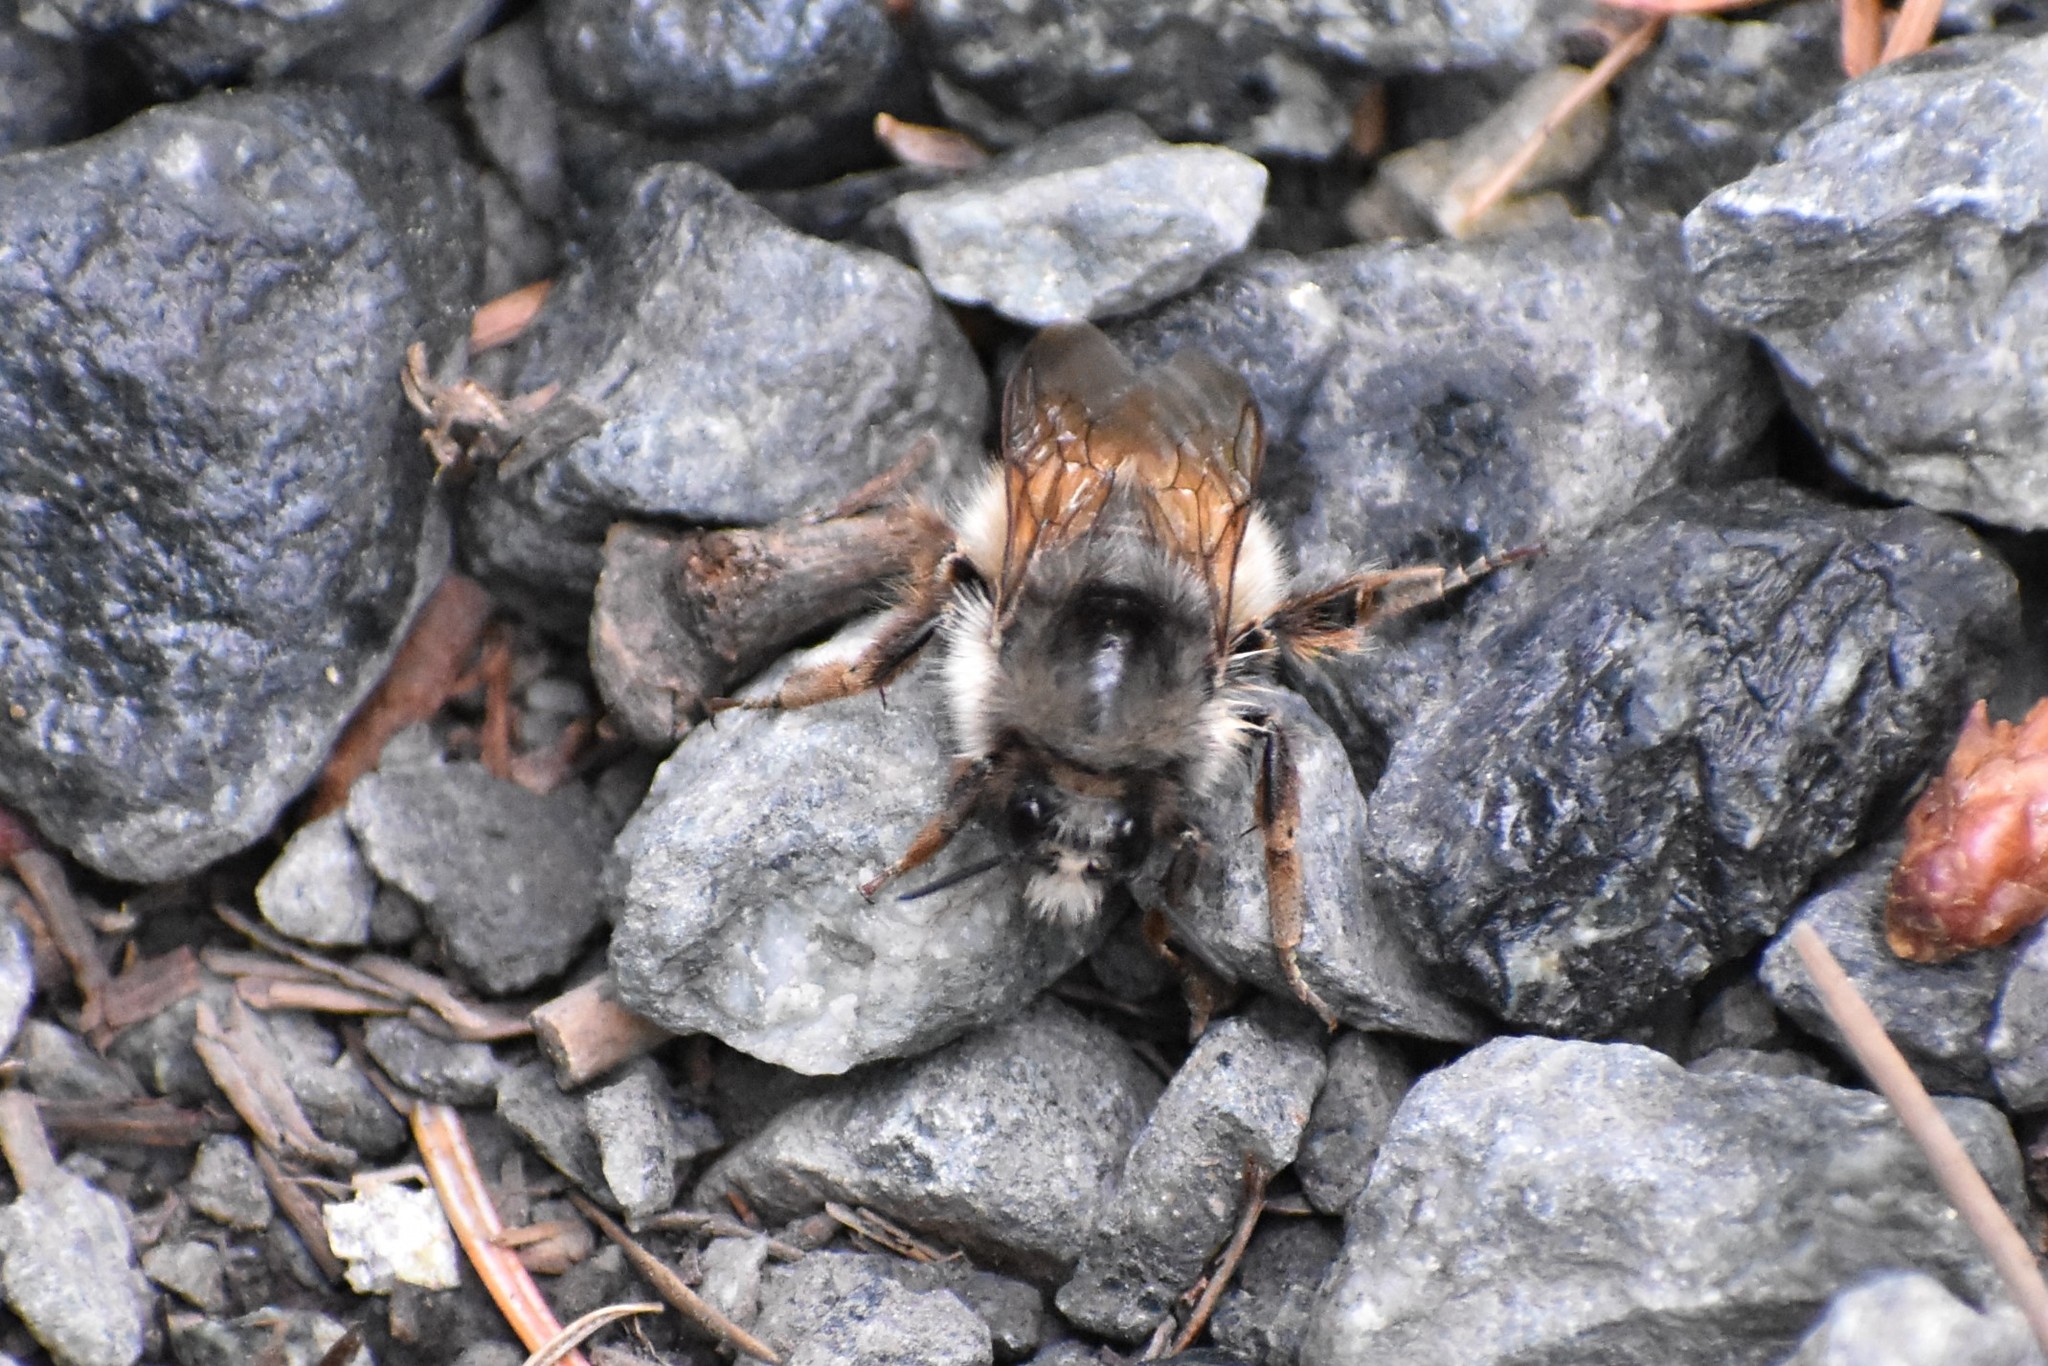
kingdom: Animalia
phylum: Arthropoda
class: Insecta
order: Hymenoptera
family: Apidae
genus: Bombus
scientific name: Bombus melanopygus
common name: Black tail bumble bee
